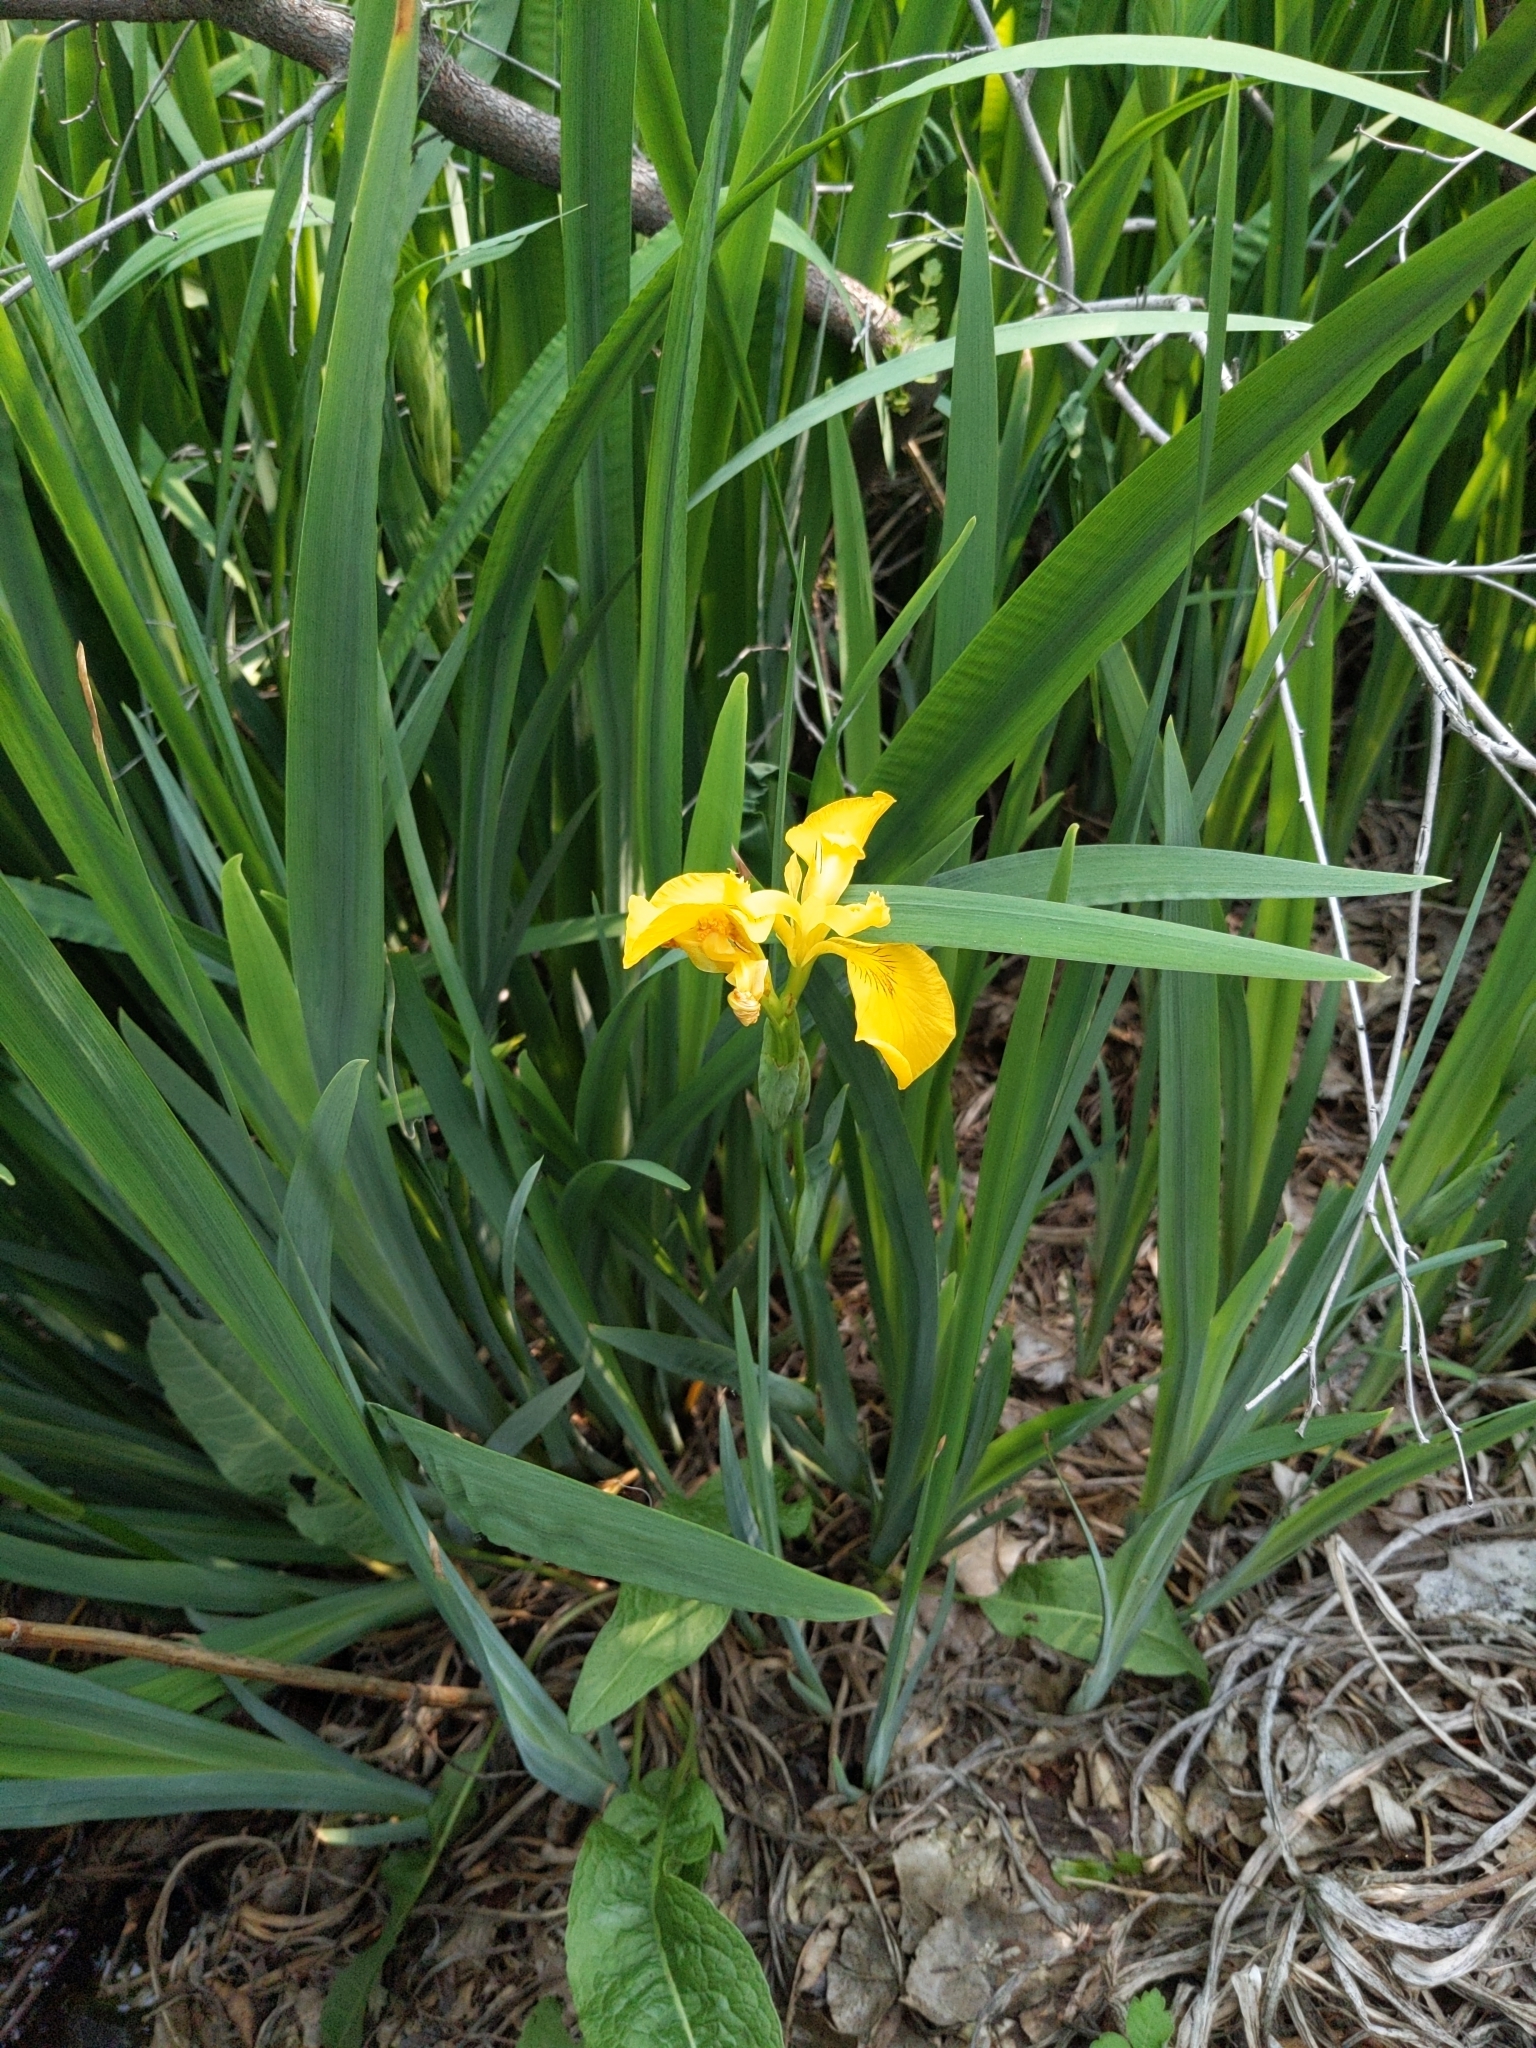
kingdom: Plantae
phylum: Tracheophyta
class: Liliopsida
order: Asparagales
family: Iridaceae
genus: Iris
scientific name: Iris pseudacorus
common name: Yellow flag
